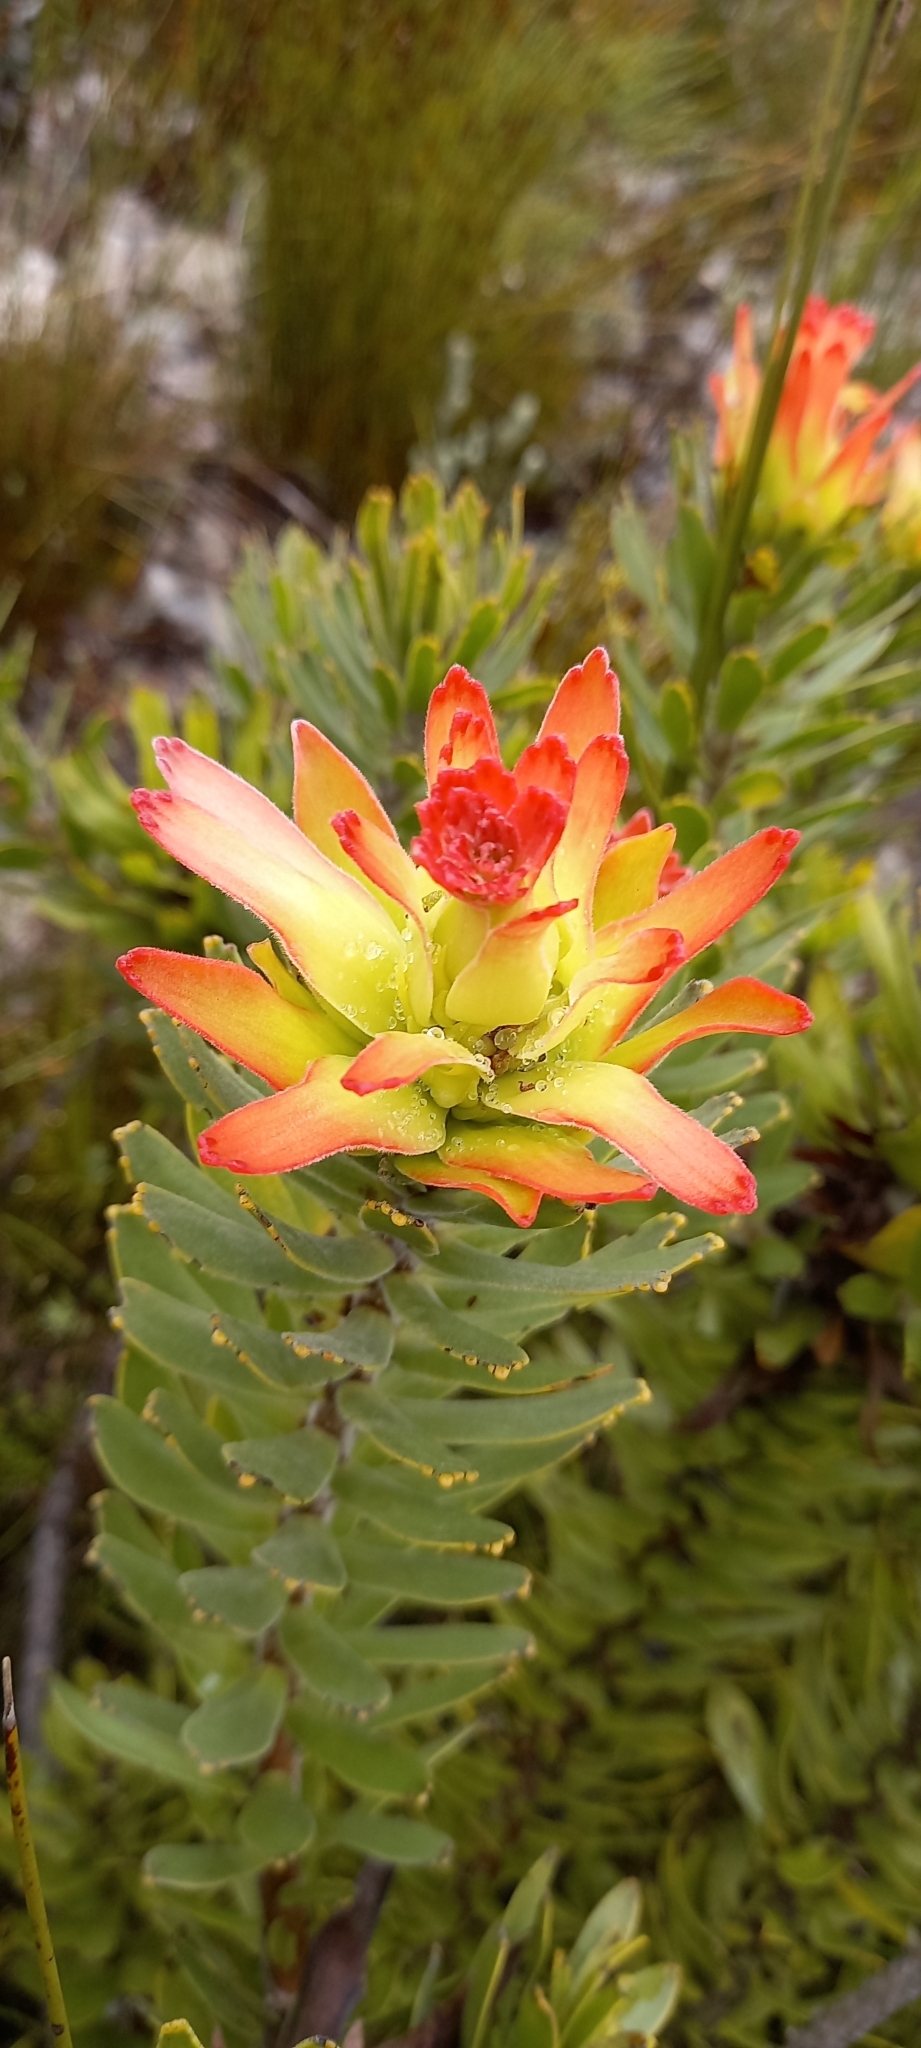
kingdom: Plantae
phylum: Tracheophyta
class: Magnoliopsida
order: Proteales
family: Proteaceae
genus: Mimetes
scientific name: Mimetes cucullatus
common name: Common pagoda
